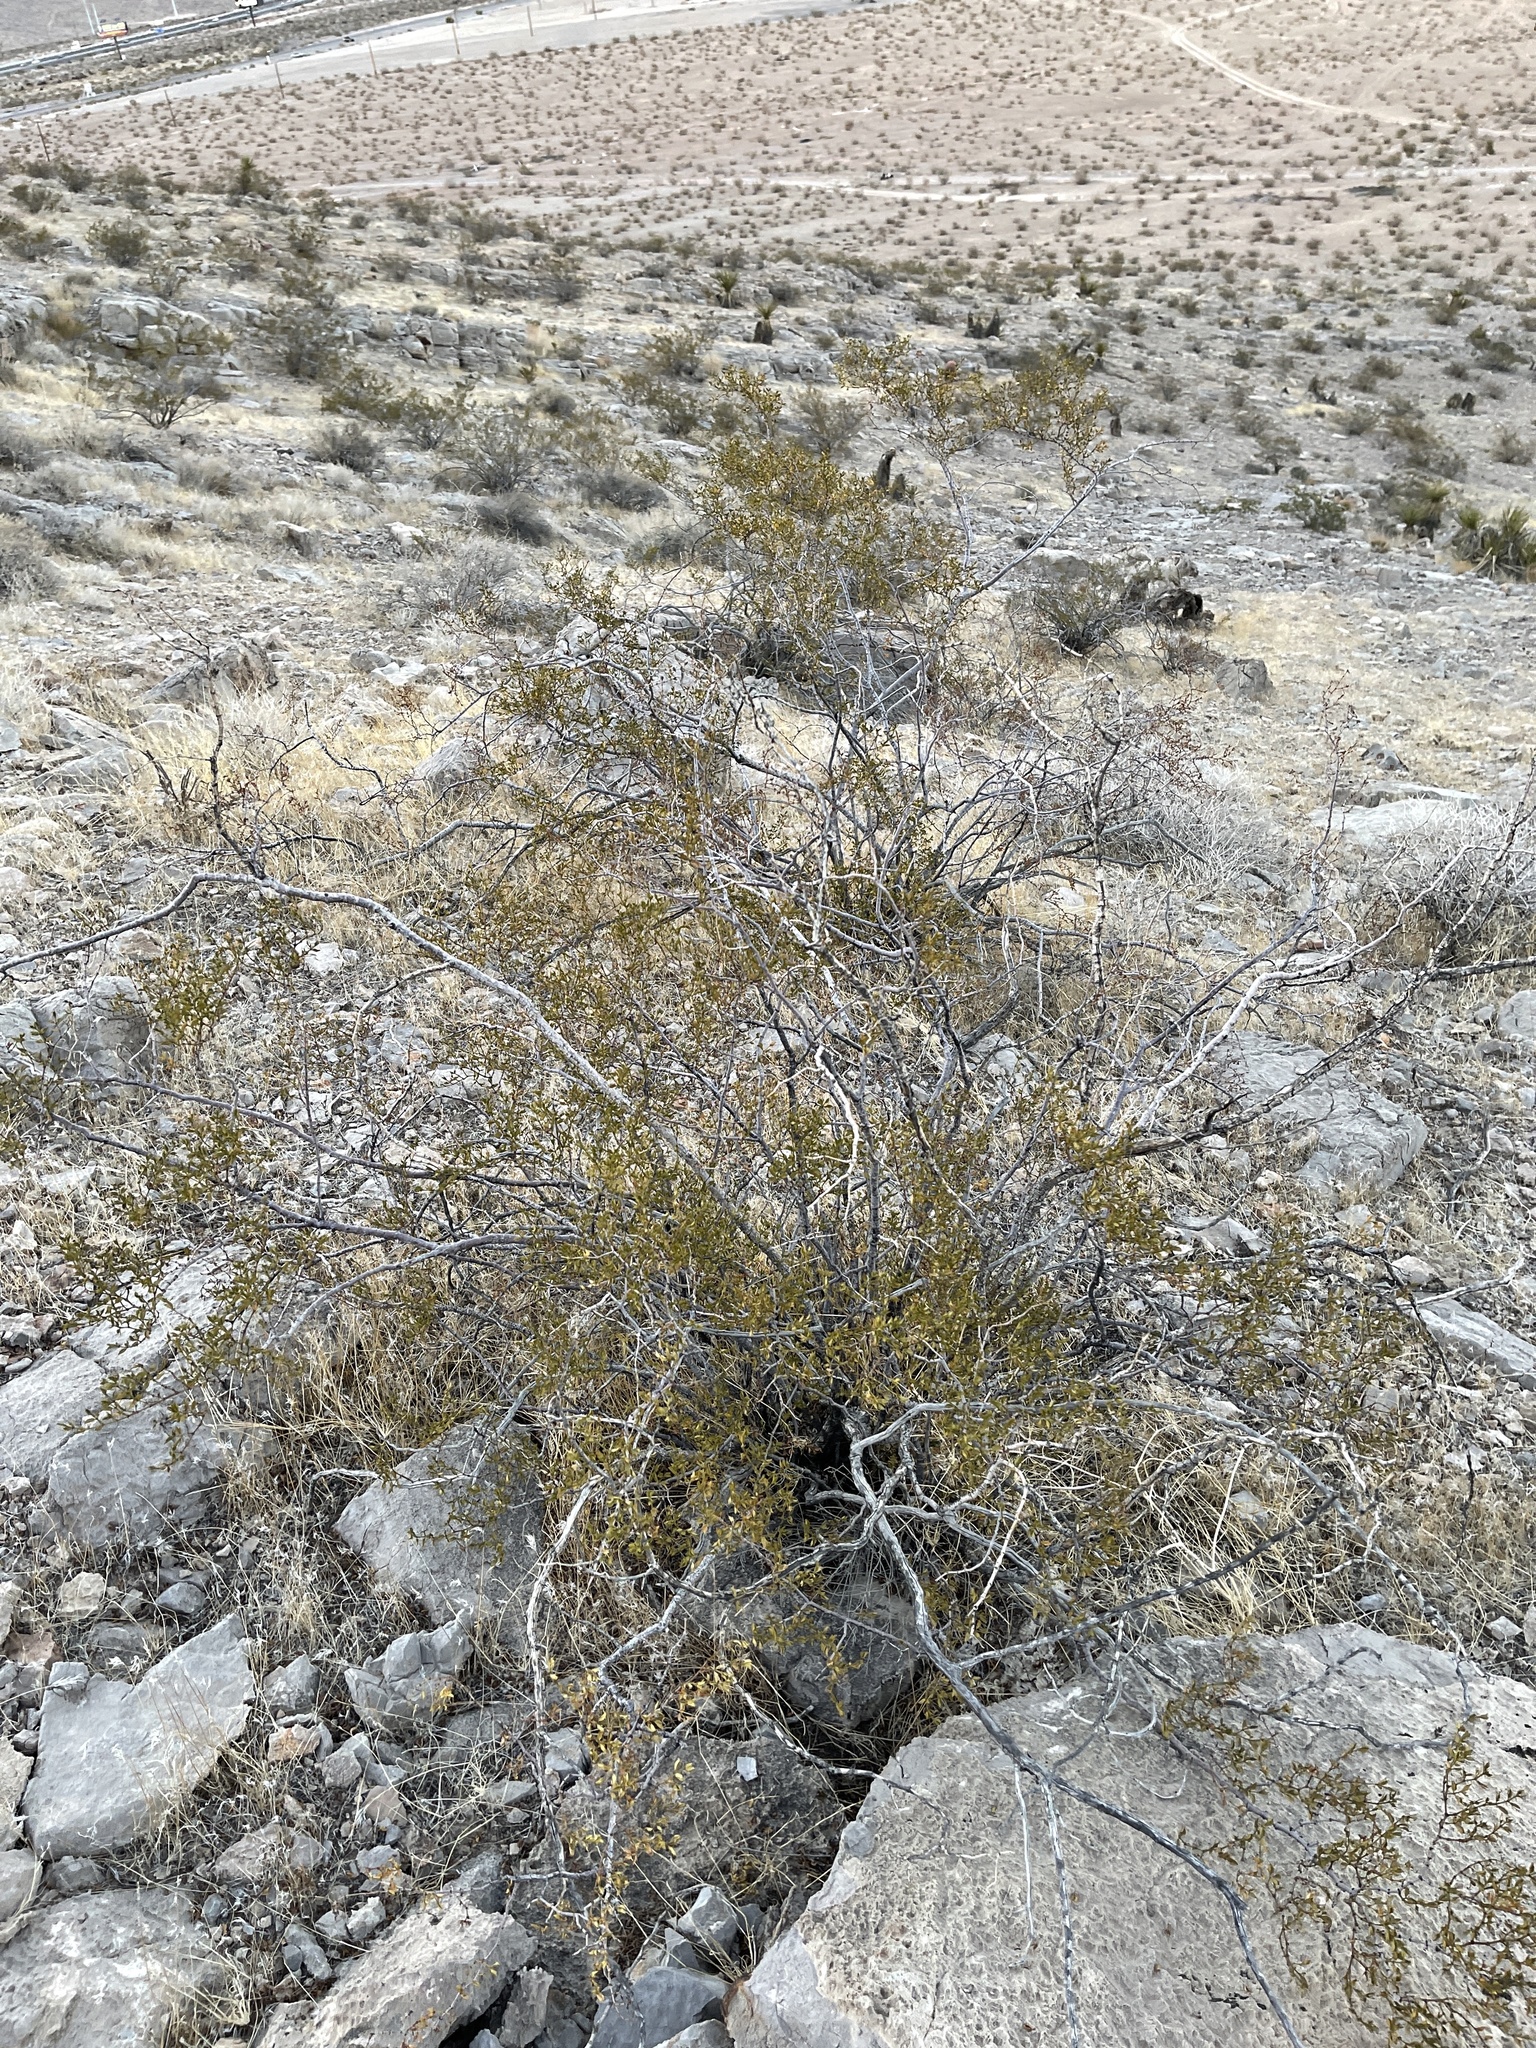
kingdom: Plantae
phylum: Tracheophyta
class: Magnoliopsida
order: Zygophyllales
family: Zygophyllaceae
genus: Larrea
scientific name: Larrea tridentata
